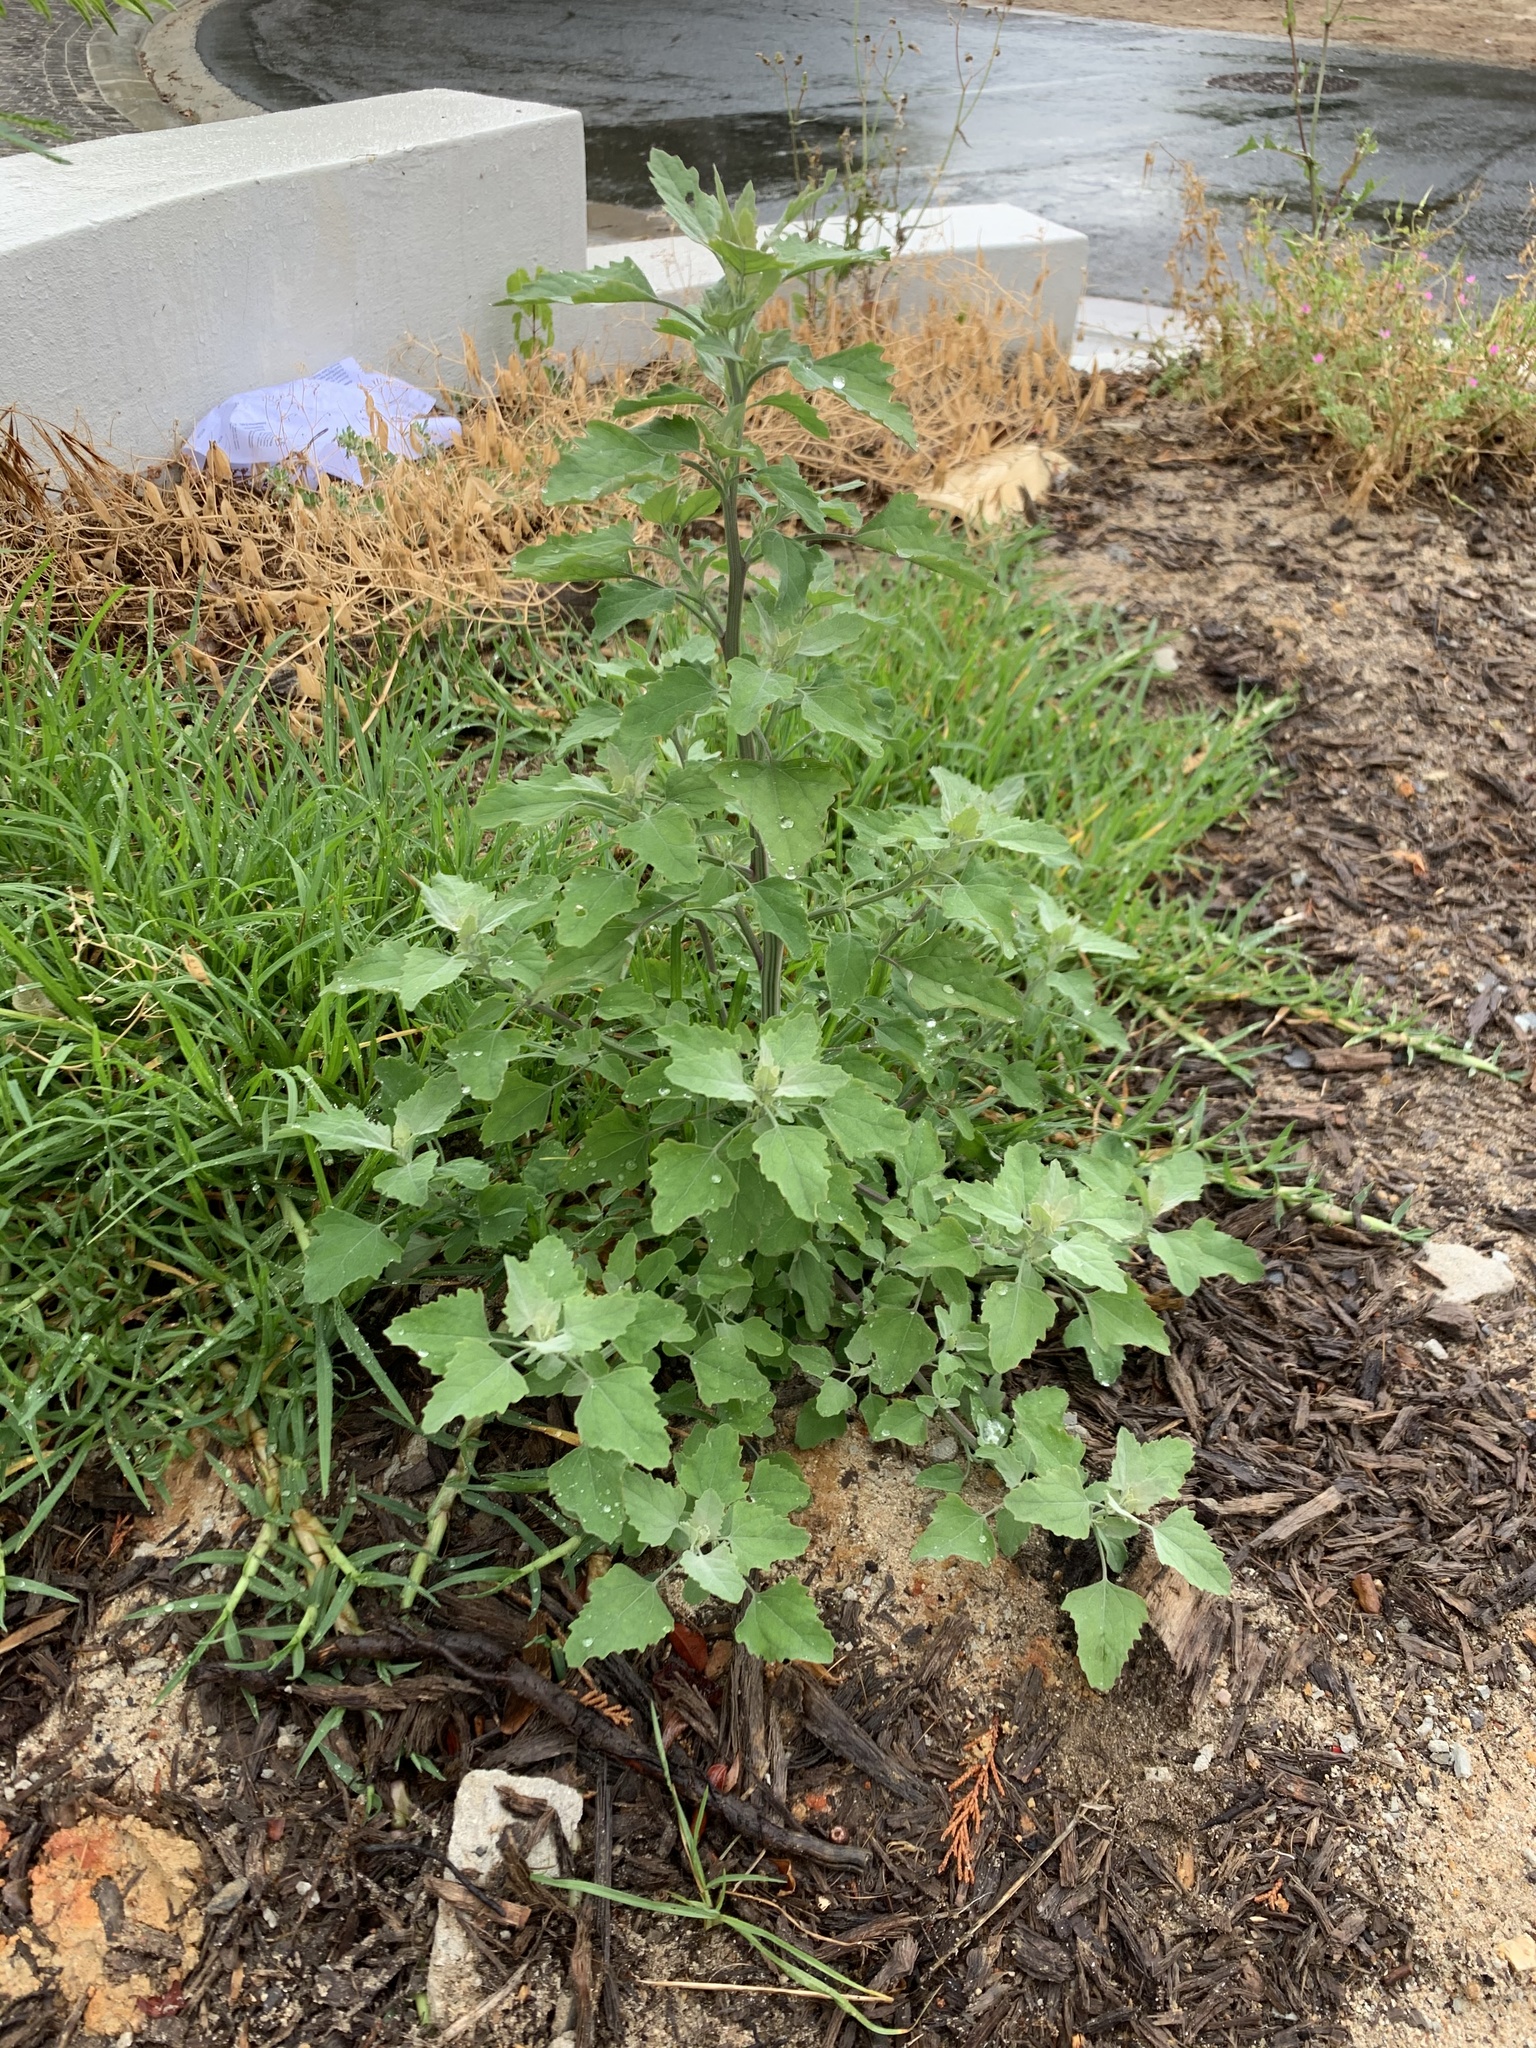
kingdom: Plantae
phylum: Tracheophyta
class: Magnoliopsida
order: Caryophyllales
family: Amaranthaceae
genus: Chenopodium
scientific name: Chenopodium album
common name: Fat-hen
